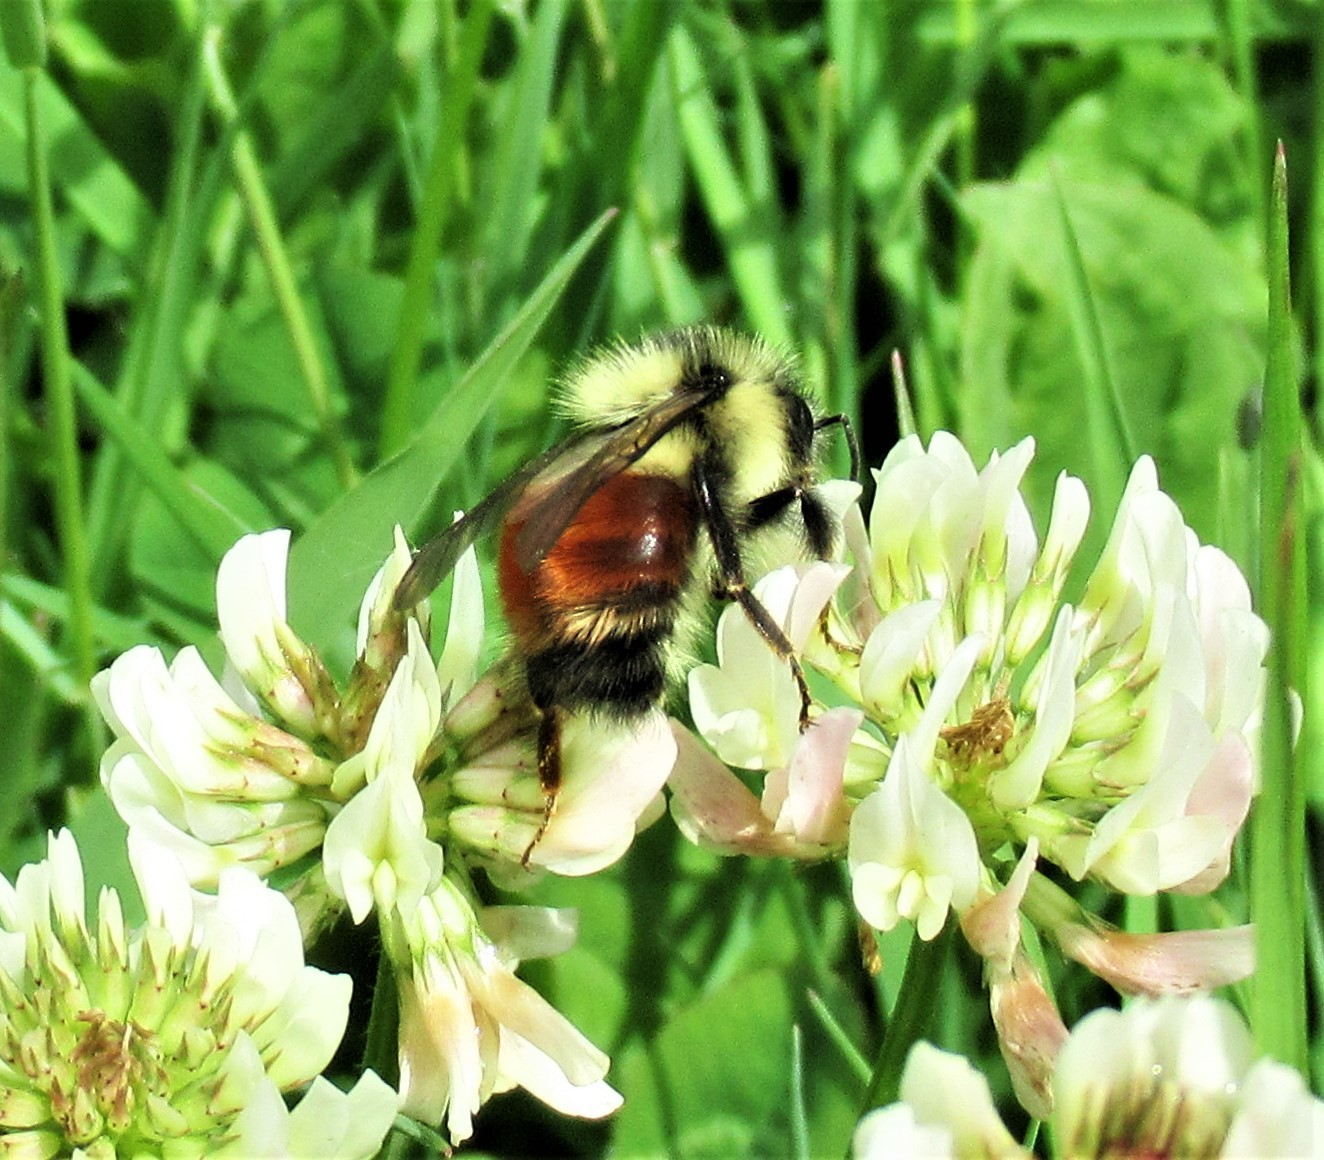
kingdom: Animalia
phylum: Arthropoda
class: Insecta
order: Hymenoptera
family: Apidae
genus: Bombus
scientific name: Bombus melanopygus
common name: Black tail bumble bee
